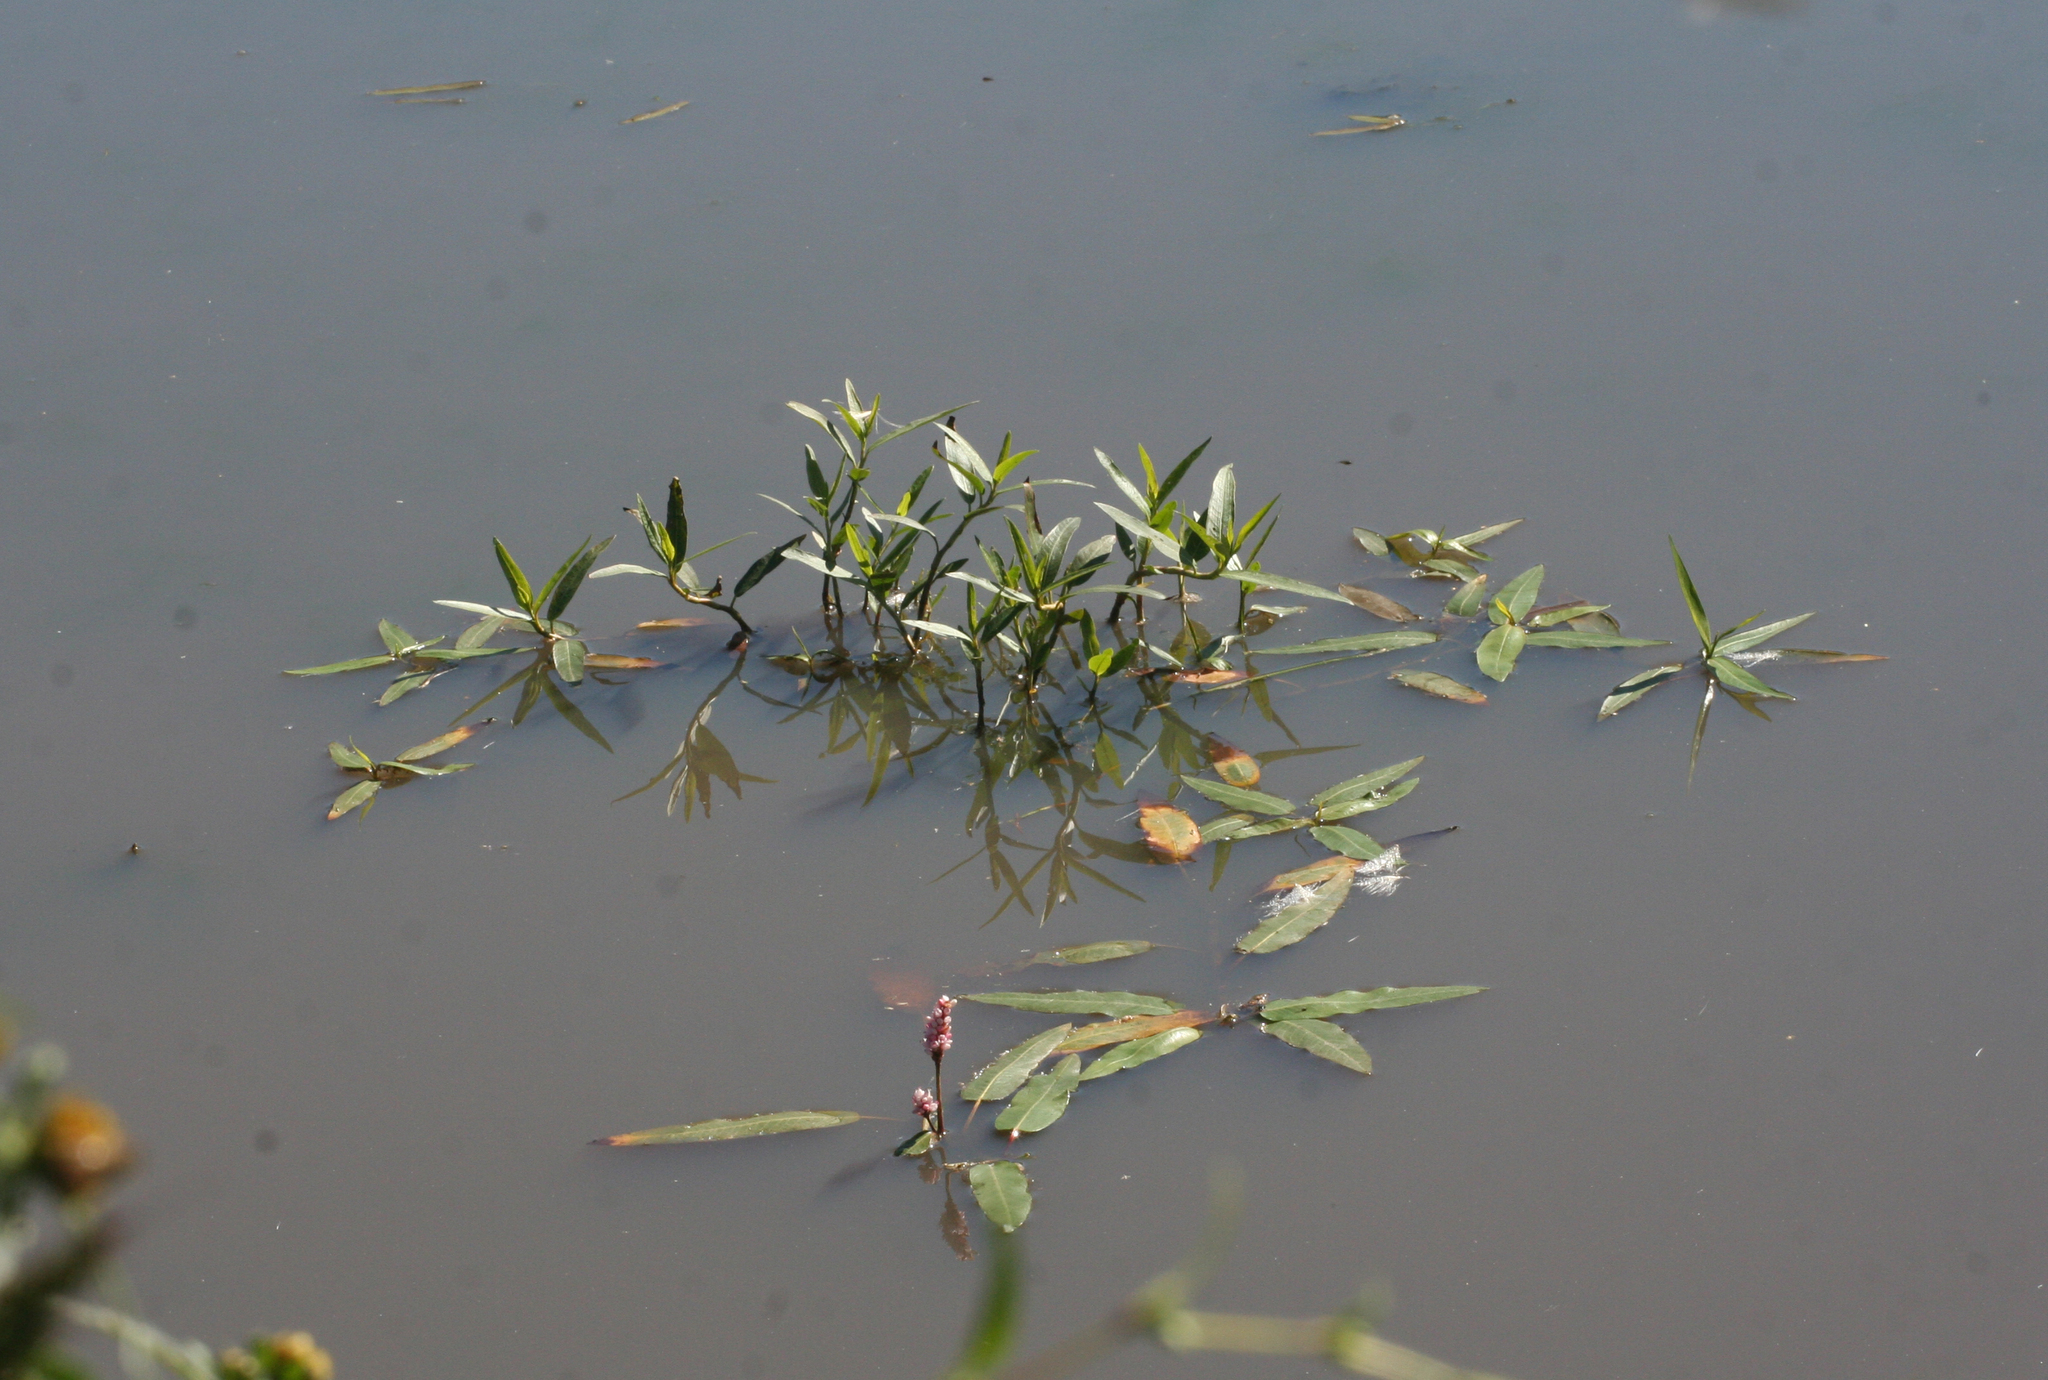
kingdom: Plantae
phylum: Tracheophyta
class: Magnoliopsida
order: Caryophyllales
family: Polygonaceae
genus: Persicaria
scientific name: Persicaria amphibia
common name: Amphibious bistort
